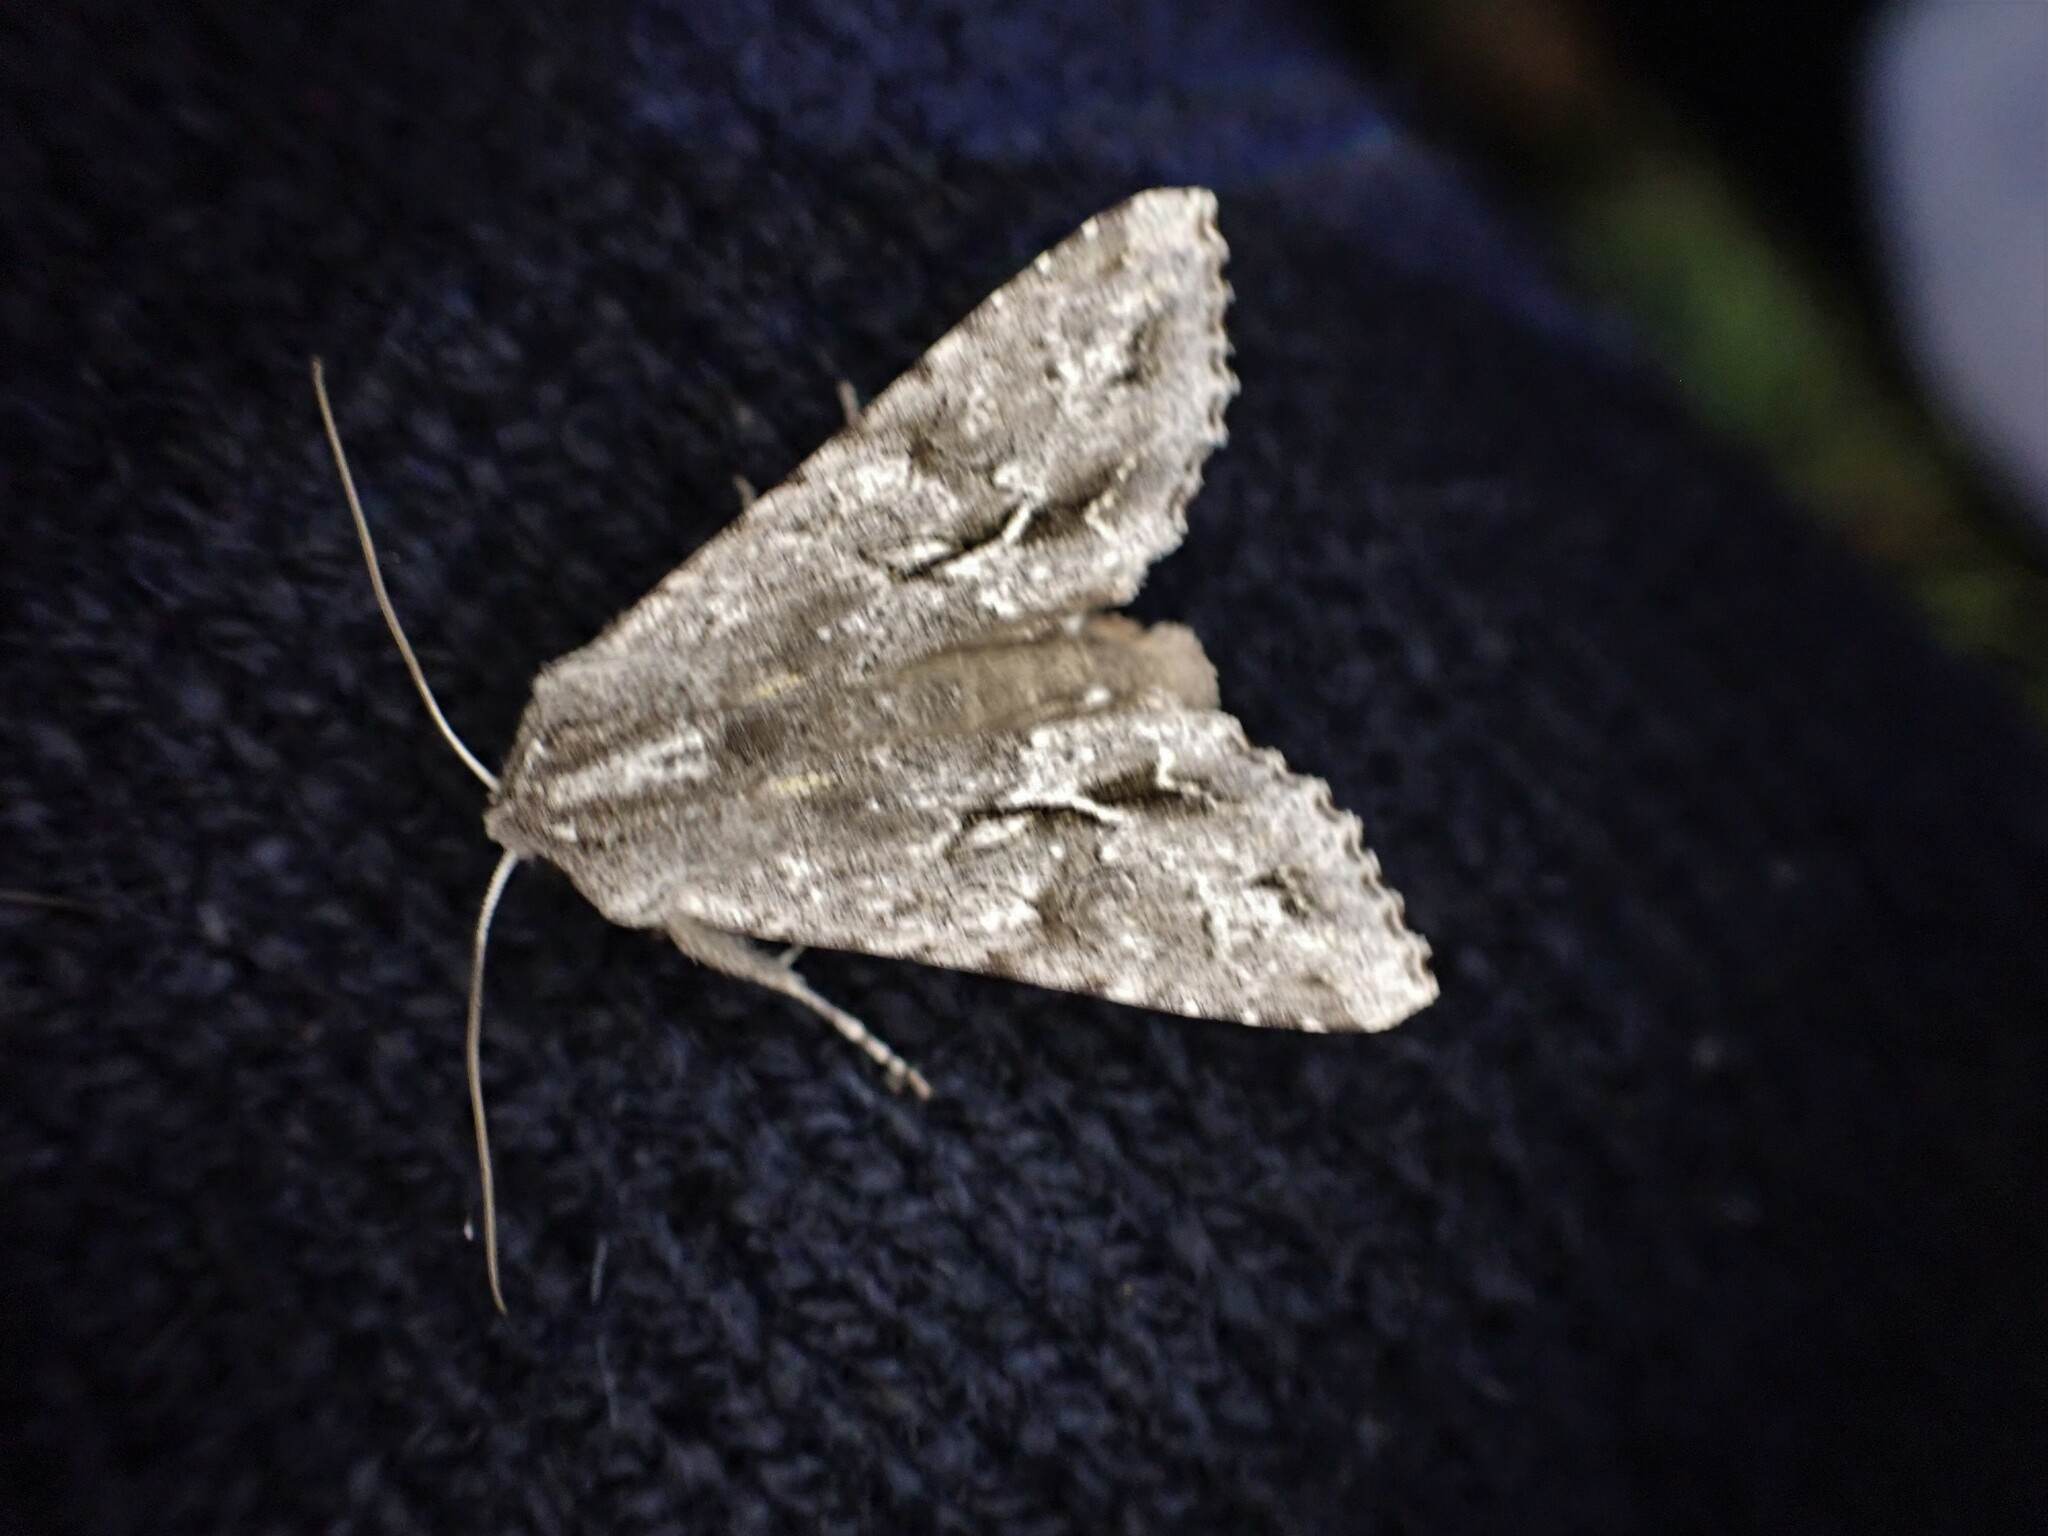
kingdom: Animalia
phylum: Arthropoda
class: Insecta
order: Lepidoptera
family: Noctuidae
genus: Ichneutica
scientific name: Ichneutica
